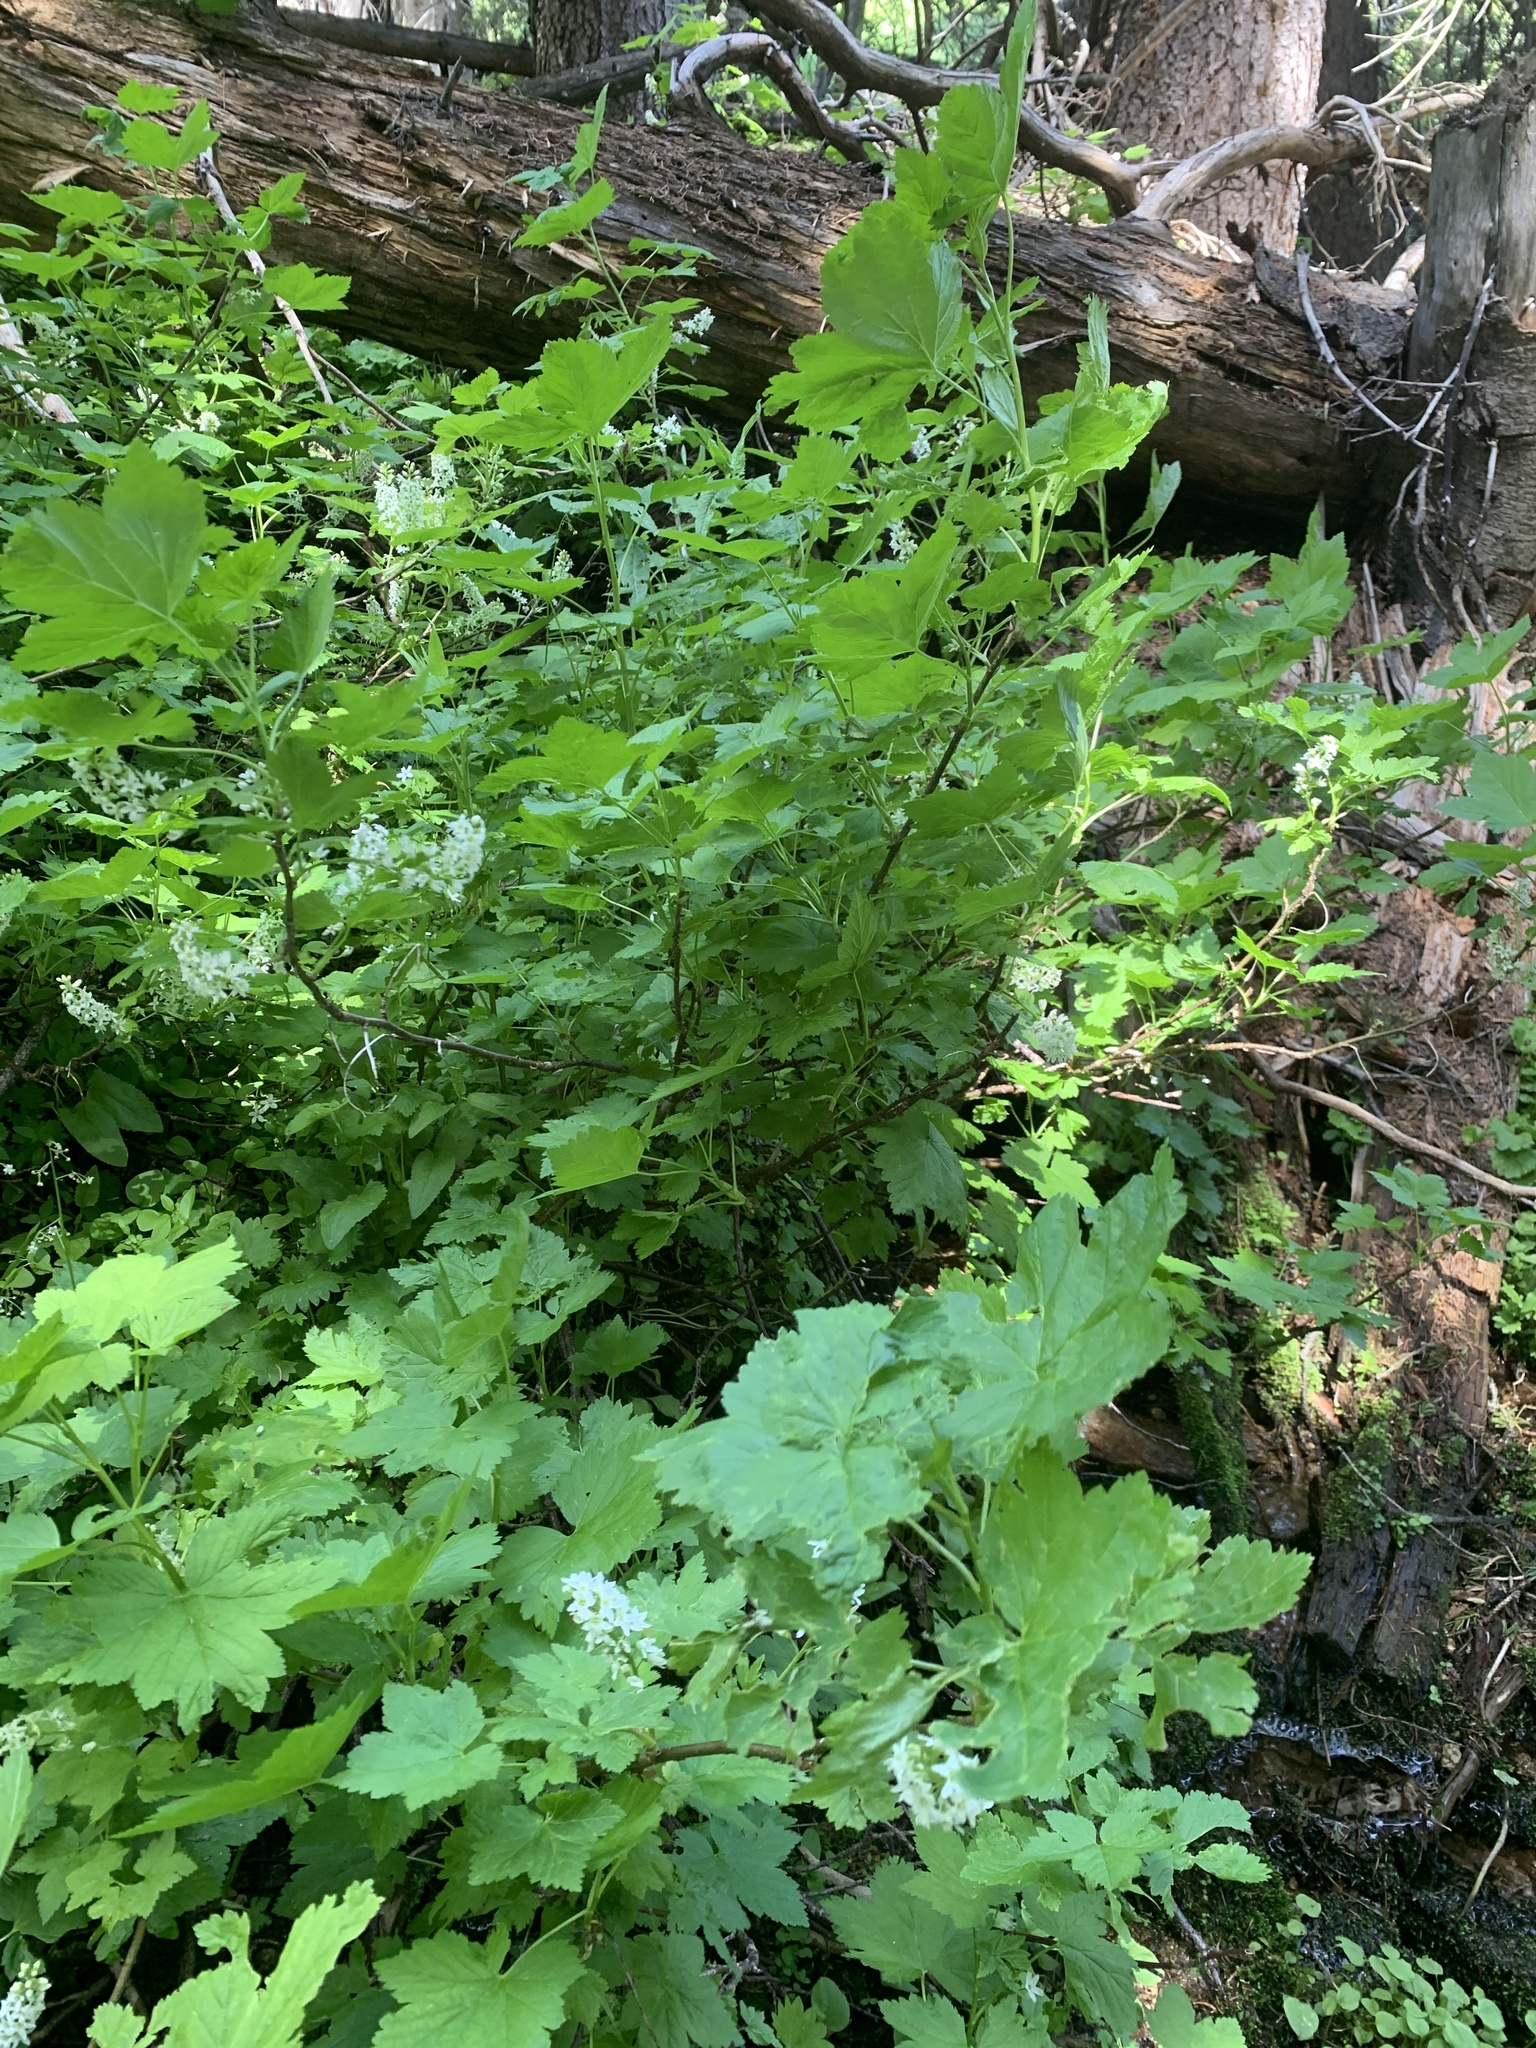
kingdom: Plantae
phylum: Tracheophyta
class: Magnoliopsida
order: Saxifragales
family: Grossulariaceae
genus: Ribes
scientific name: Ribes hudsonianum
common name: Northern black currant
